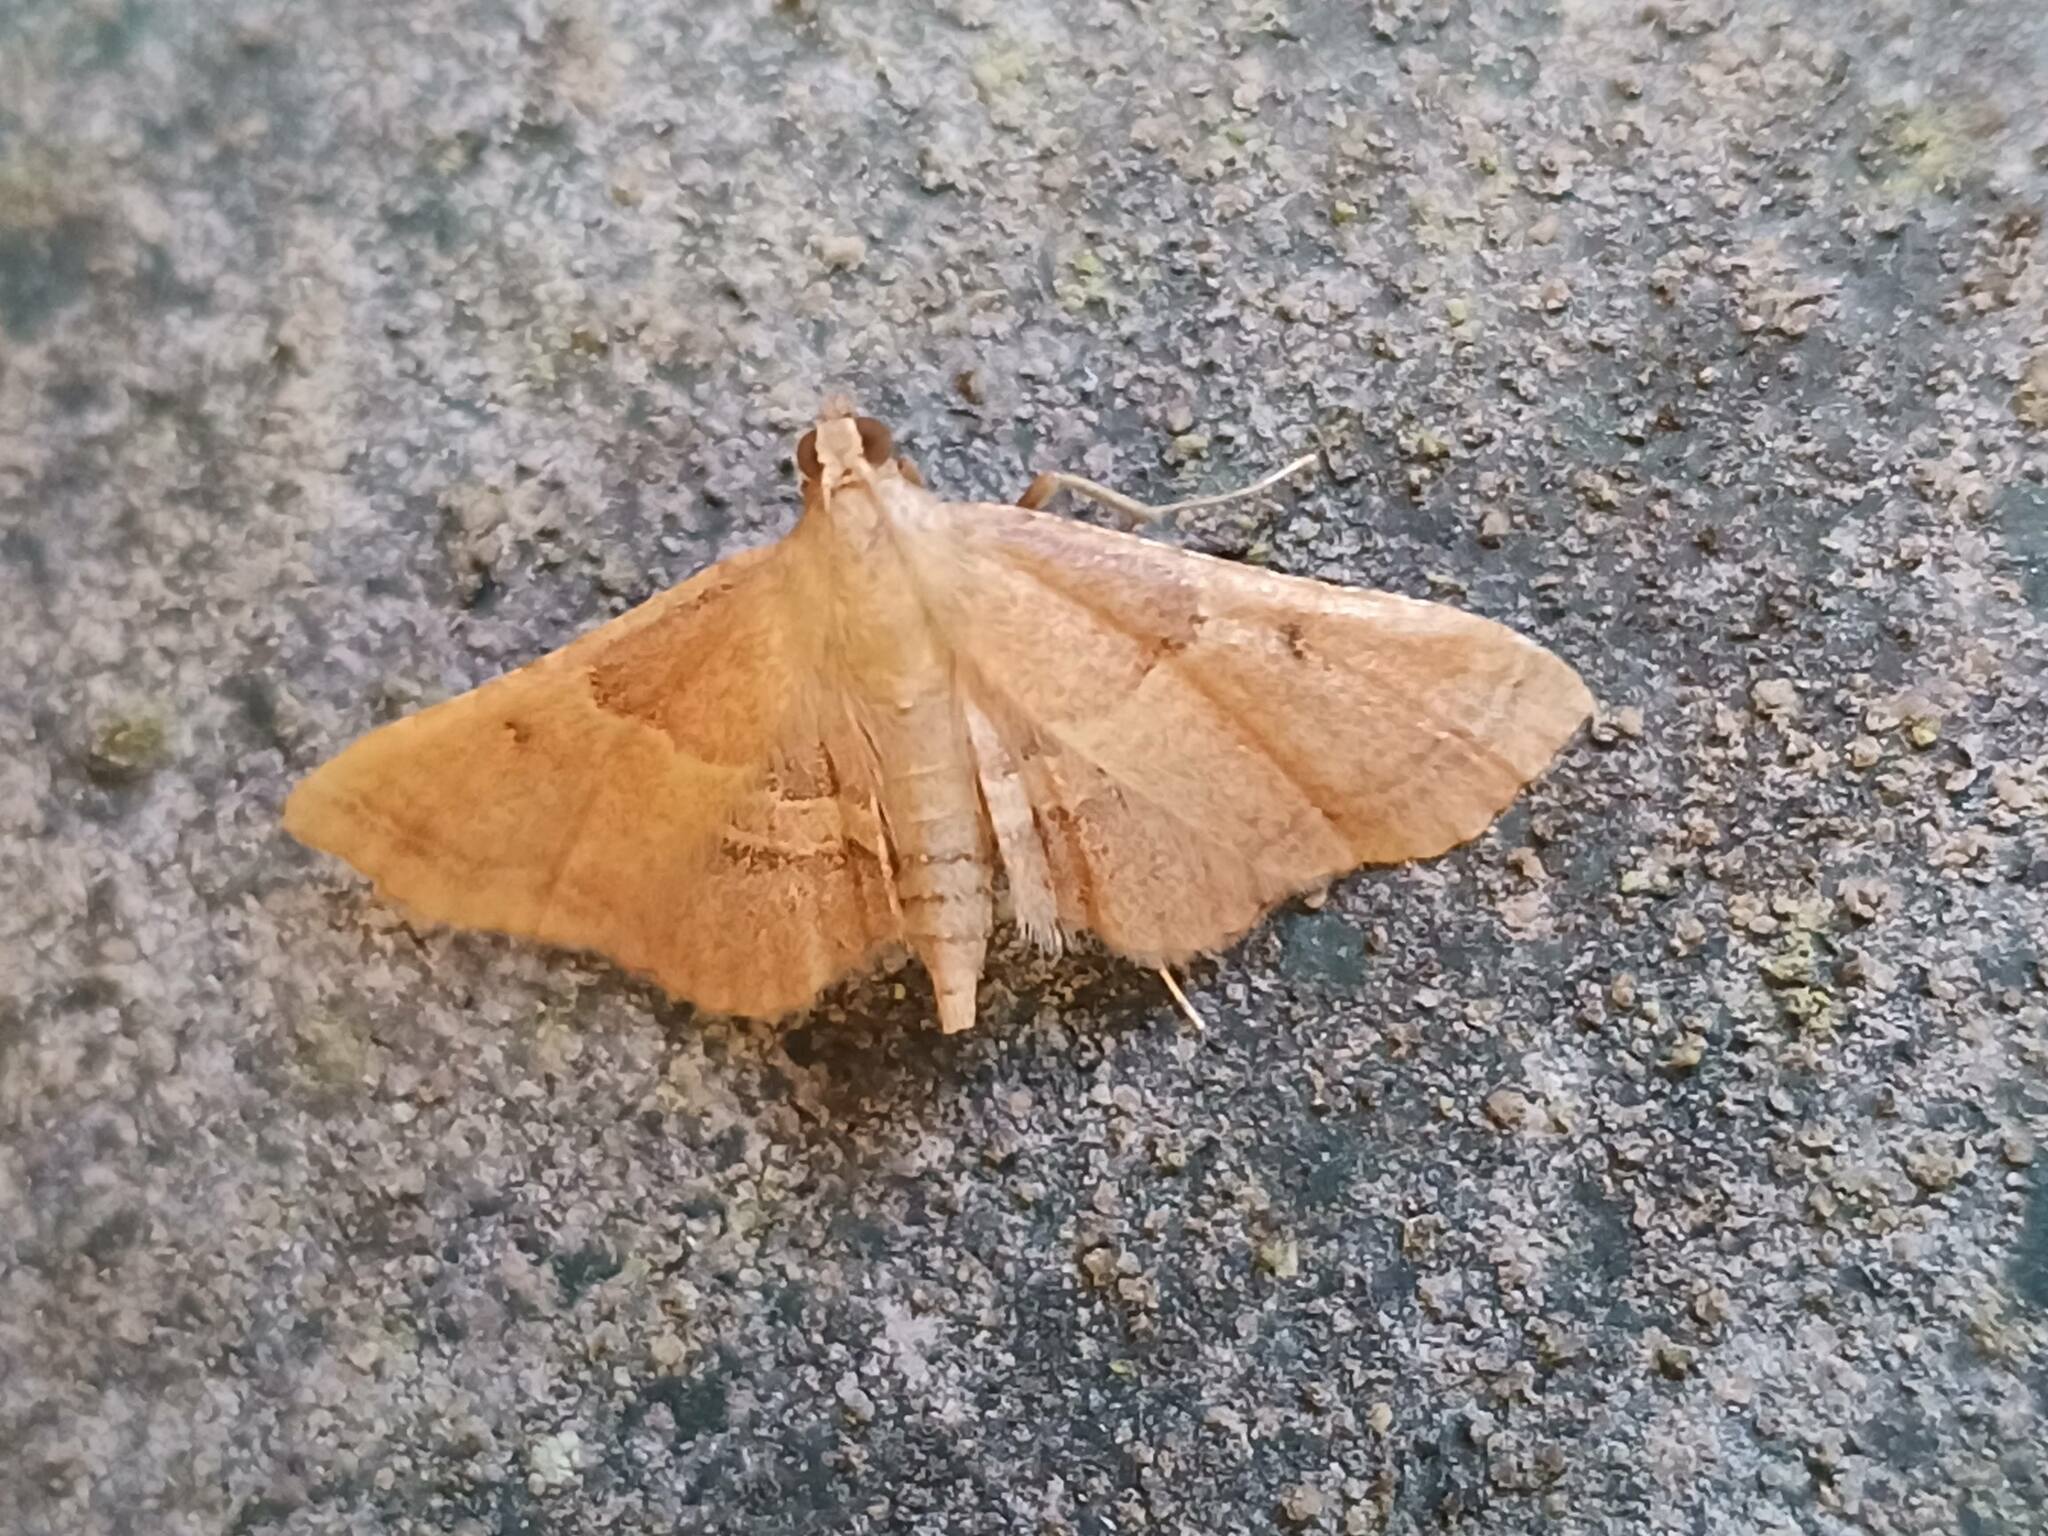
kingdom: Animalia
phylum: Arthropoda
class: Insecta
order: Lepidoptera
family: Pyralidae
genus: Endotricha
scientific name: Endotricha flammealis
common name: Rosy tabby
